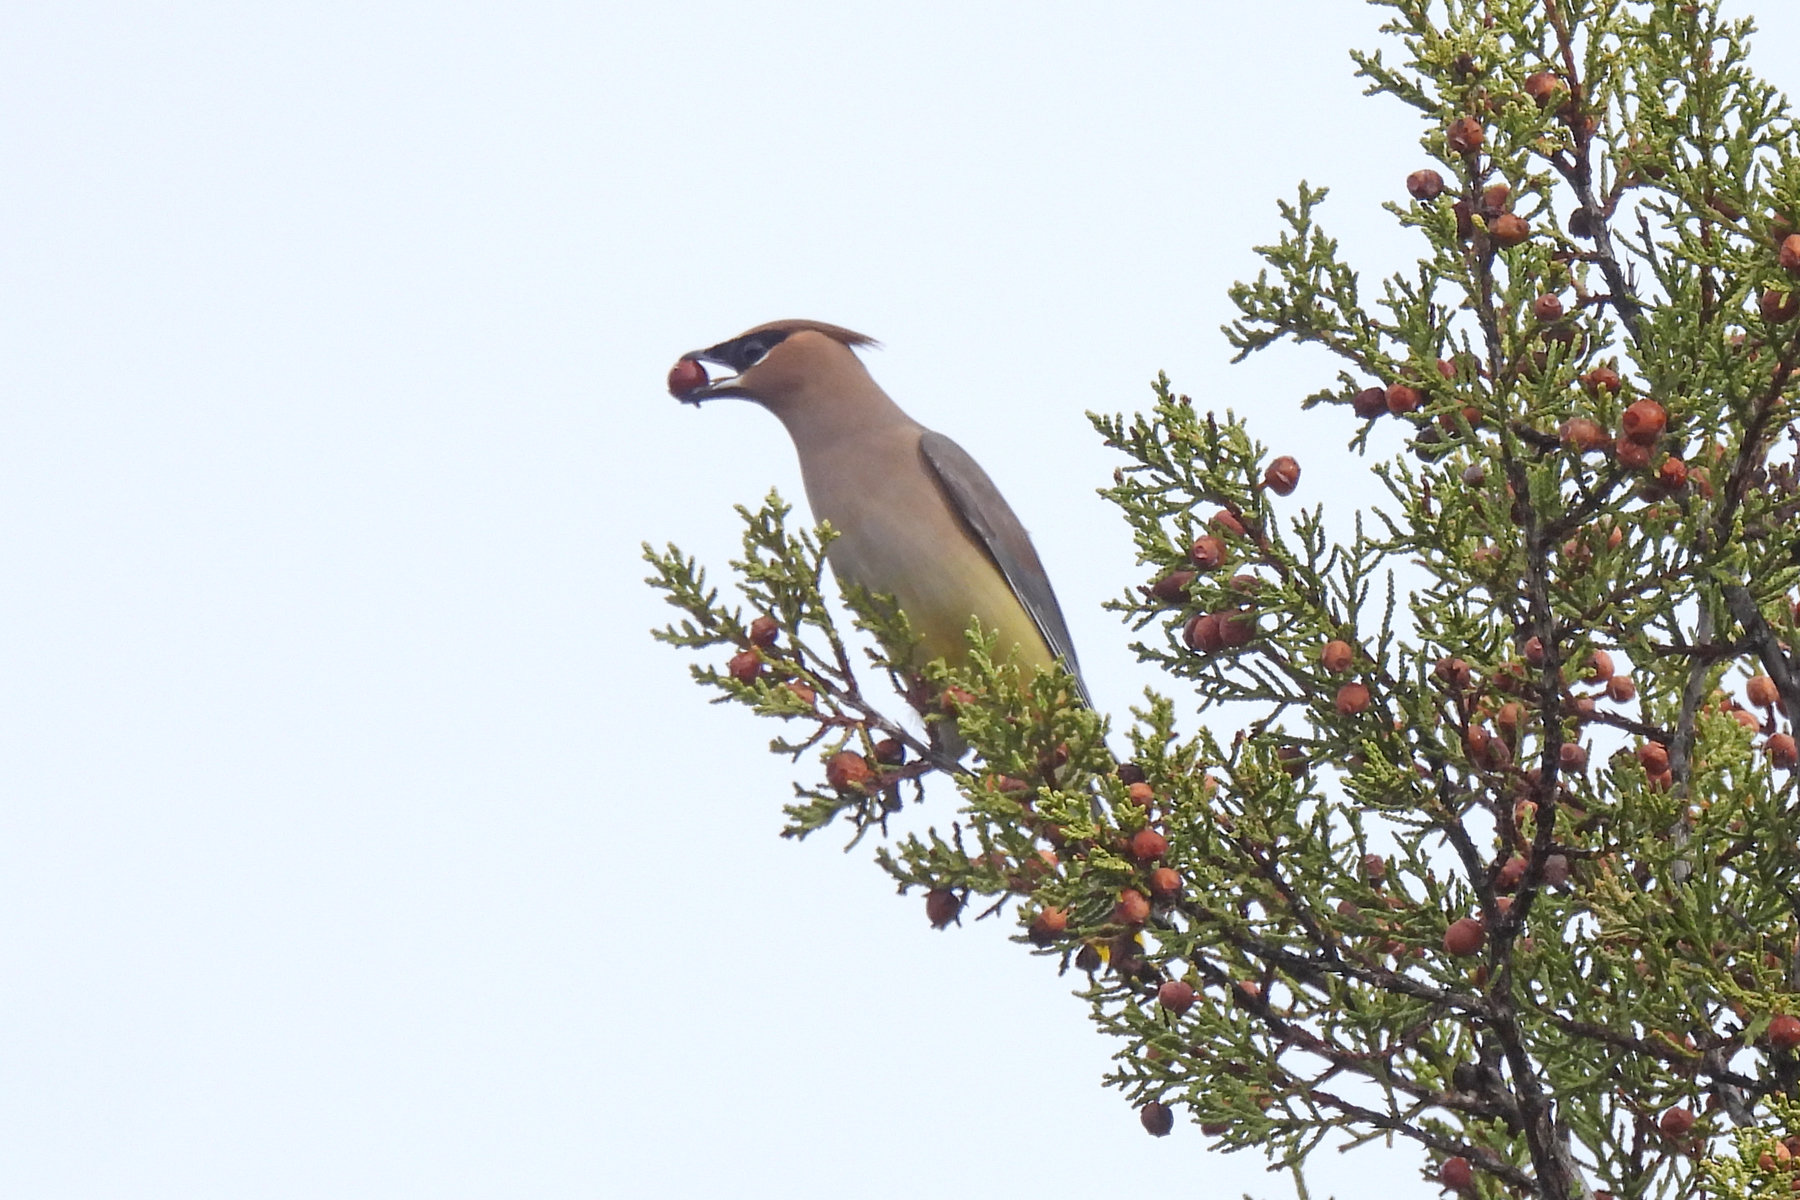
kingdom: Animalia
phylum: Chordata
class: Aves
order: Passeriformes
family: Bombycillidae
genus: Bombycilla
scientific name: Bombycilla cedrorum
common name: Cedar waxwing
